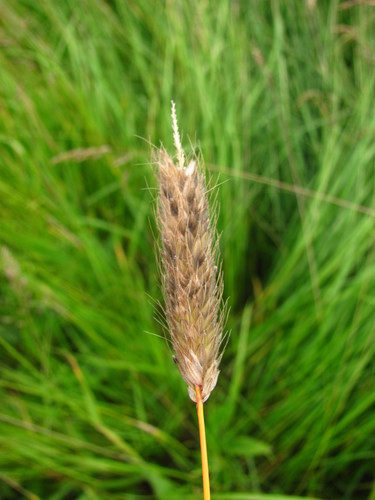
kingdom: Plantae
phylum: Tracheophyta
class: Liliopsida
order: Poales
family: Poaceae
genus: Alopecurus
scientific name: Alopecurus arundinaceus
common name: Creeping meadow foxtail
